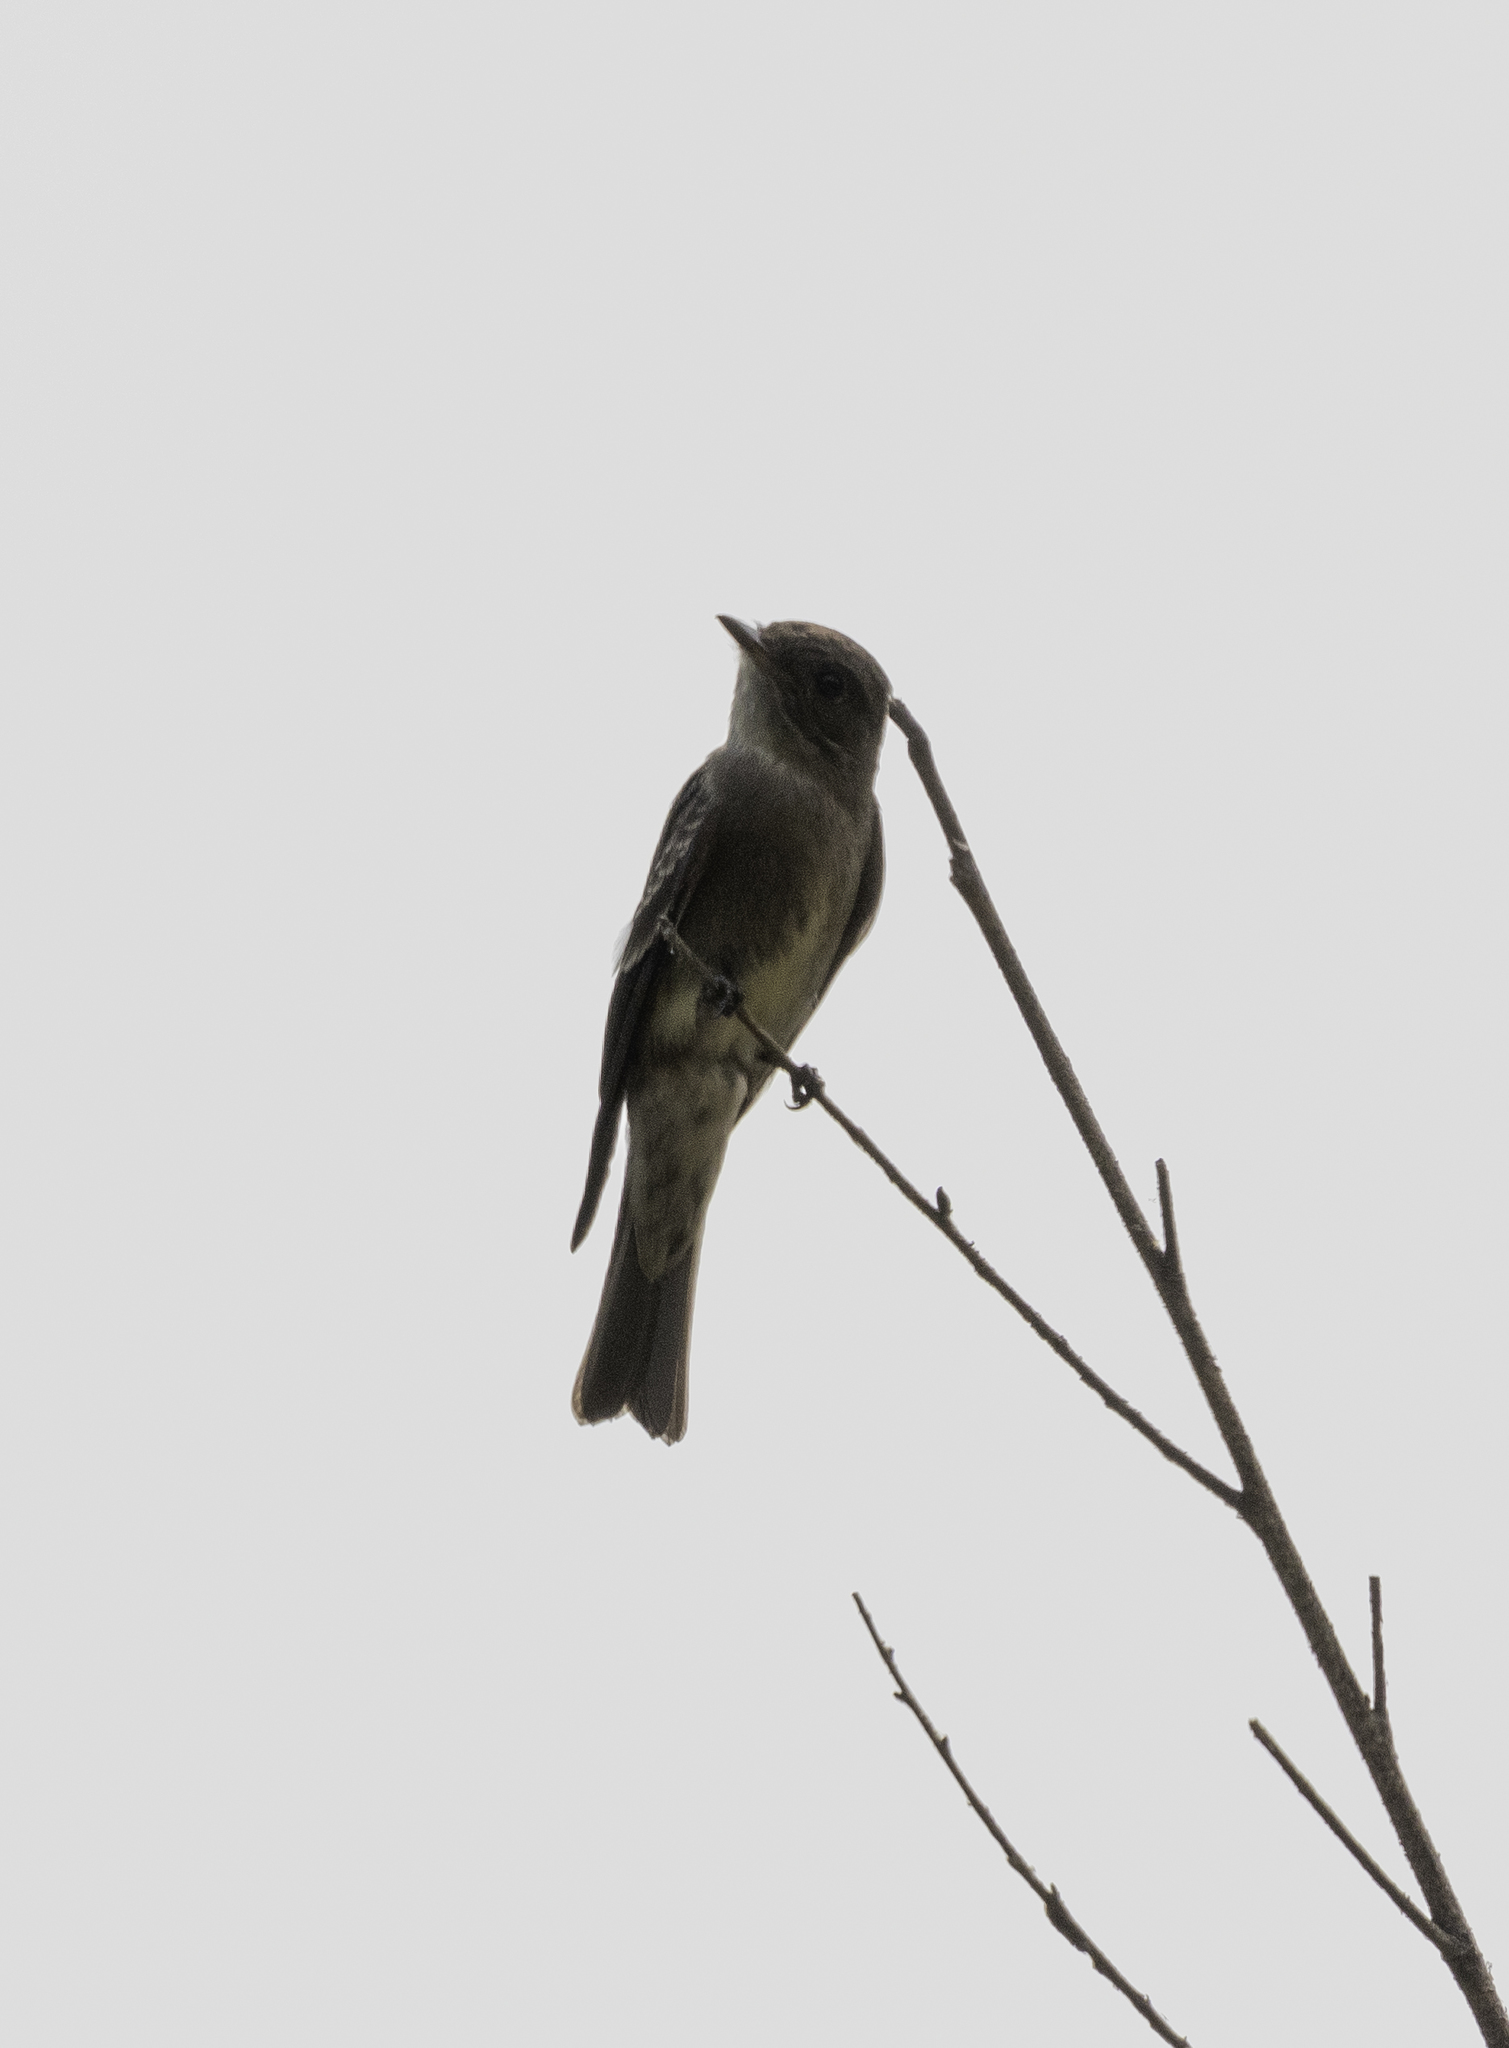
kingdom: Animalia
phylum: Chordata
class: Aves
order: Passeriformes
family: Tyrannidae
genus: Contopus
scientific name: Contopus sordidulus
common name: Western wood-pewee
